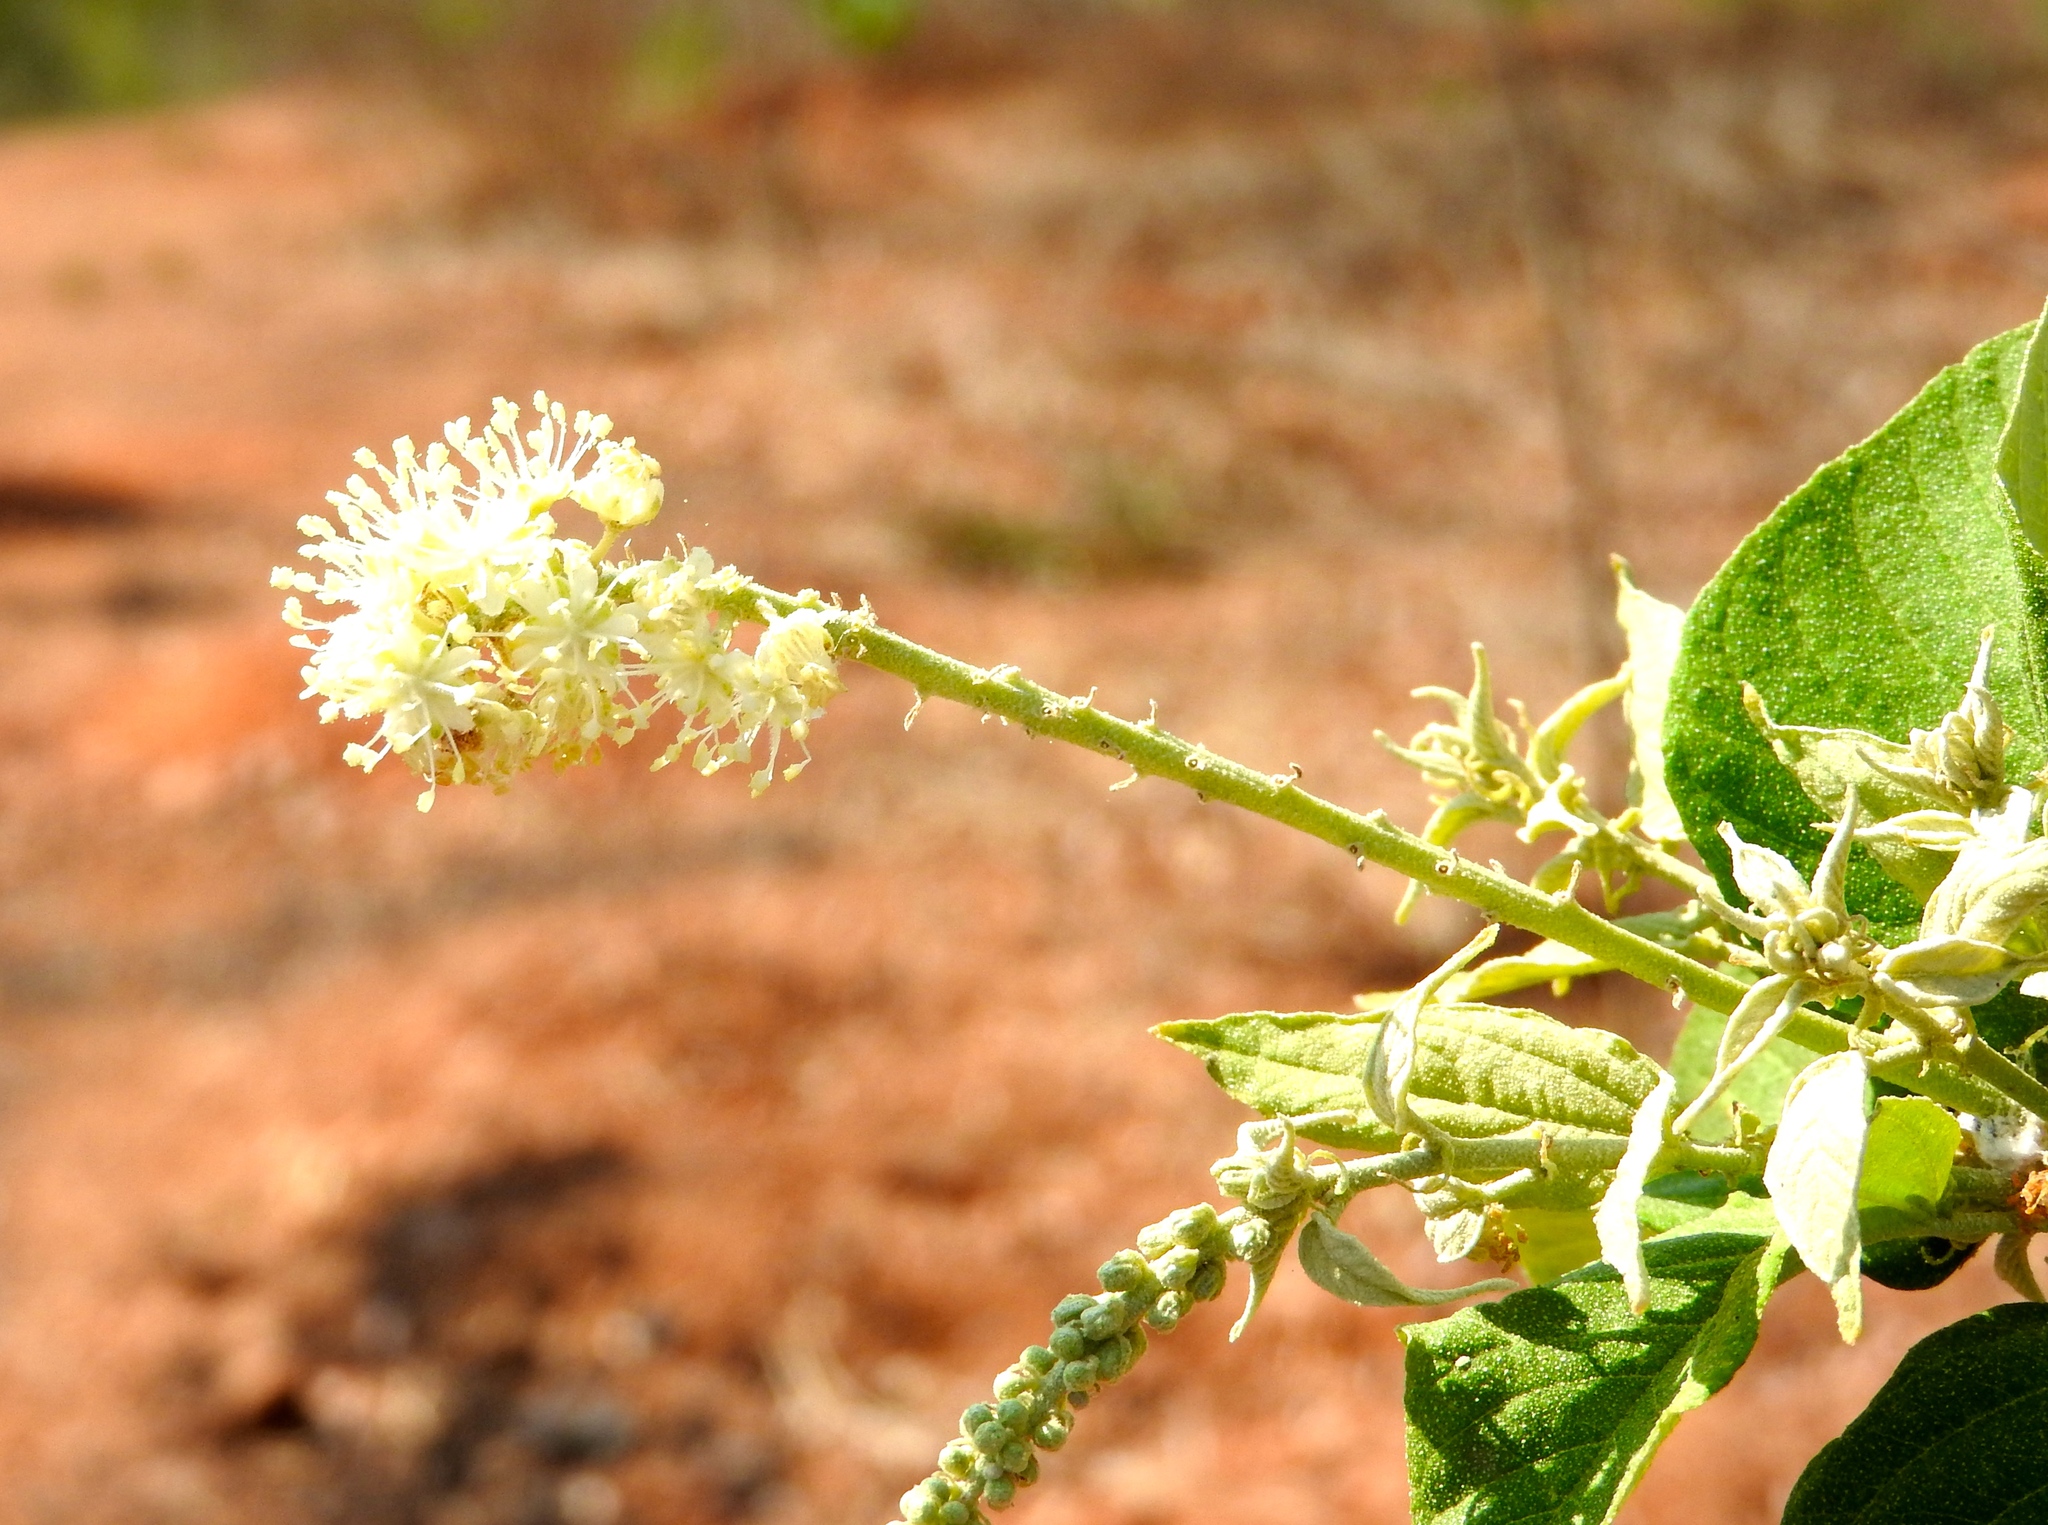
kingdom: Plantae
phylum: Tracheophyta
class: Magnoliopsida
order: Malpighiales
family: Euphorbiaceae
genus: Croton
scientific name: Croton culiacanensis
